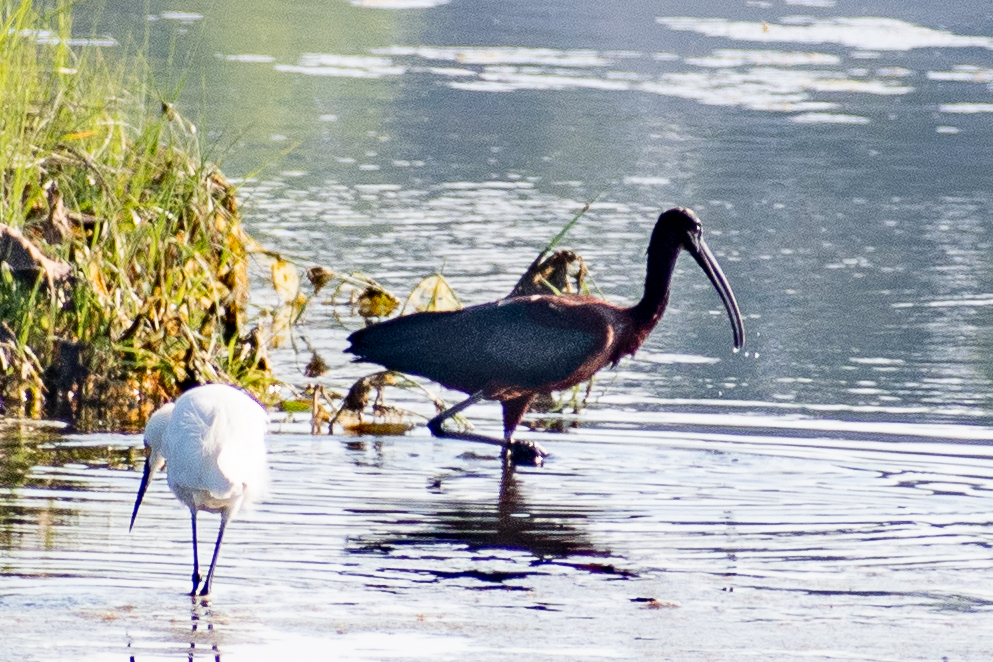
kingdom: Animalia
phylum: Chordata
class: Aves
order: Pelecaniformes
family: Threskiornithidae
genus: Plegadis
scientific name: Plegadis falcinellus
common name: Glossy ibis
